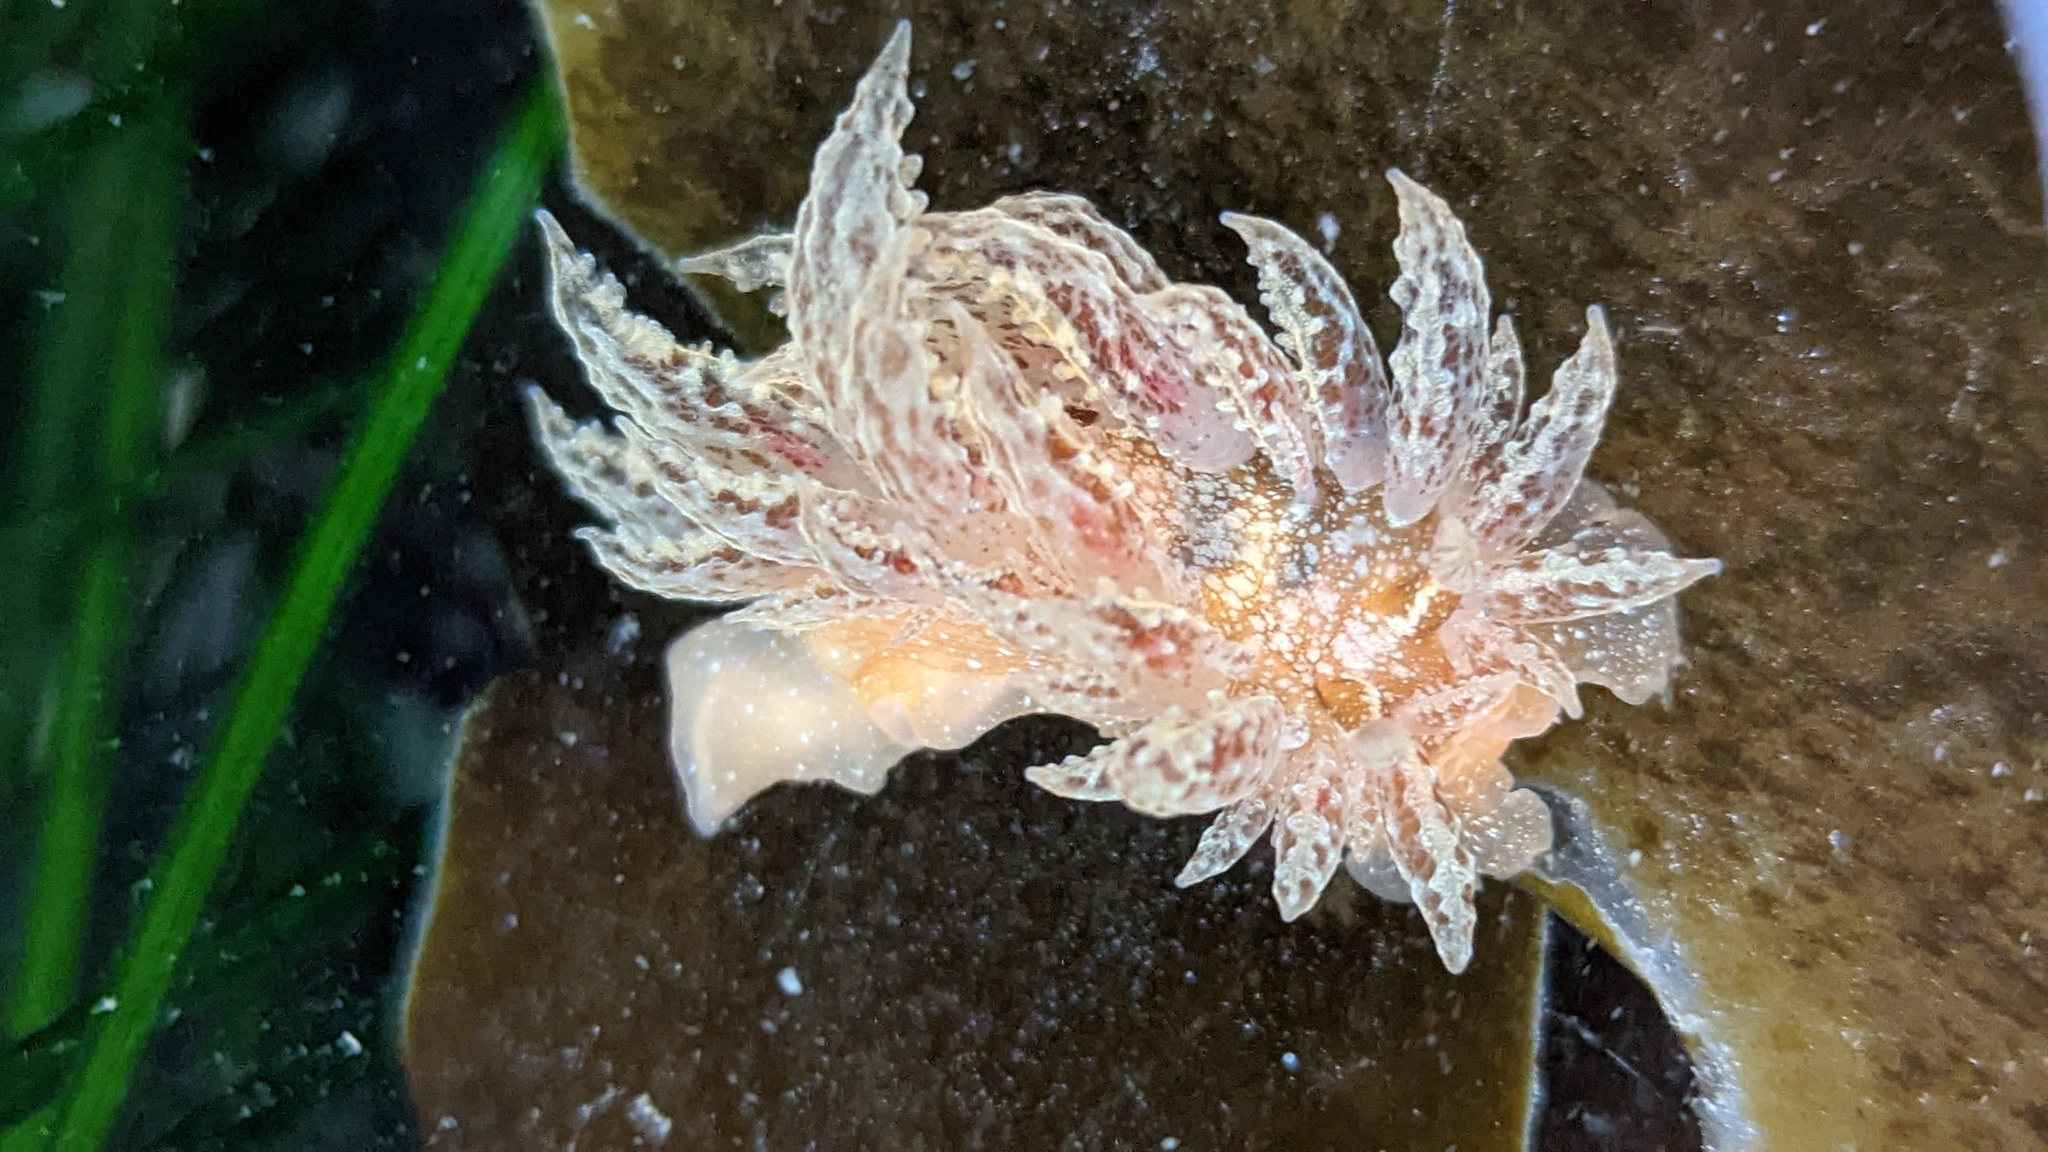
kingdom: Animalia
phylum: Mollusca
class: Gastropoda
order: Nudibranchia
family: Dironidae
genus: Dirona
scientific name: Dirona picta
